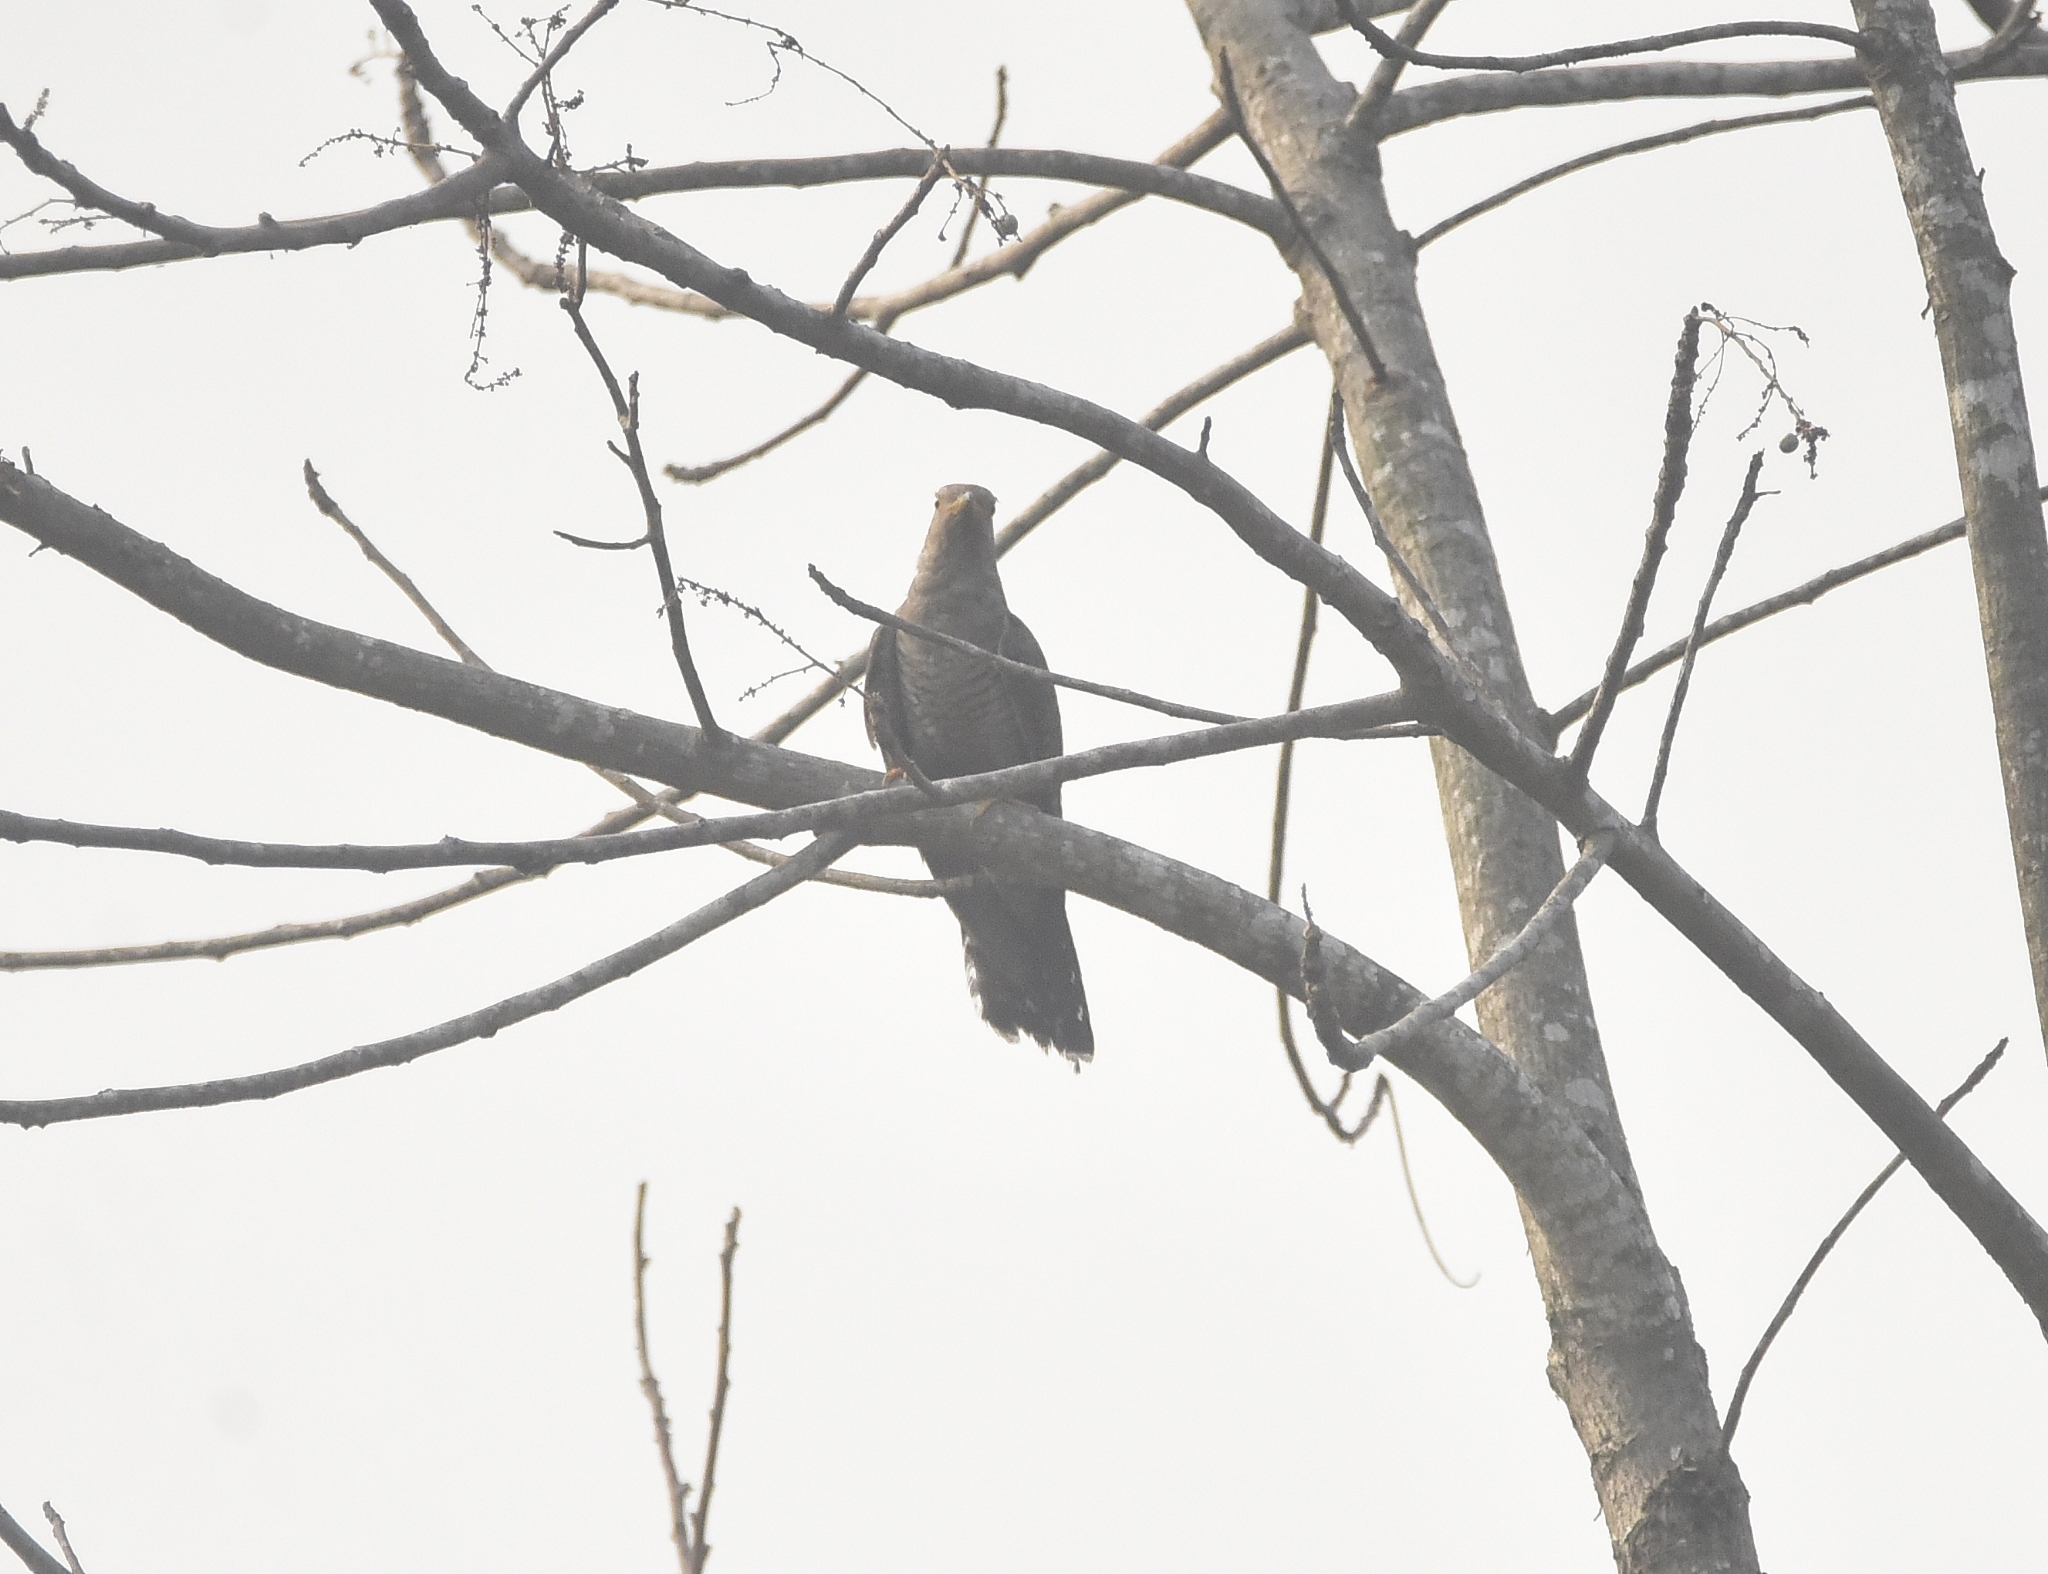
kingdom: Animalia
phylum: Chordata
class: Aves
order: Cuculiformes
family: Cuculidae
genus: Cuculus
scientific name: Cuculus canorus
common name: Common cuckoo
